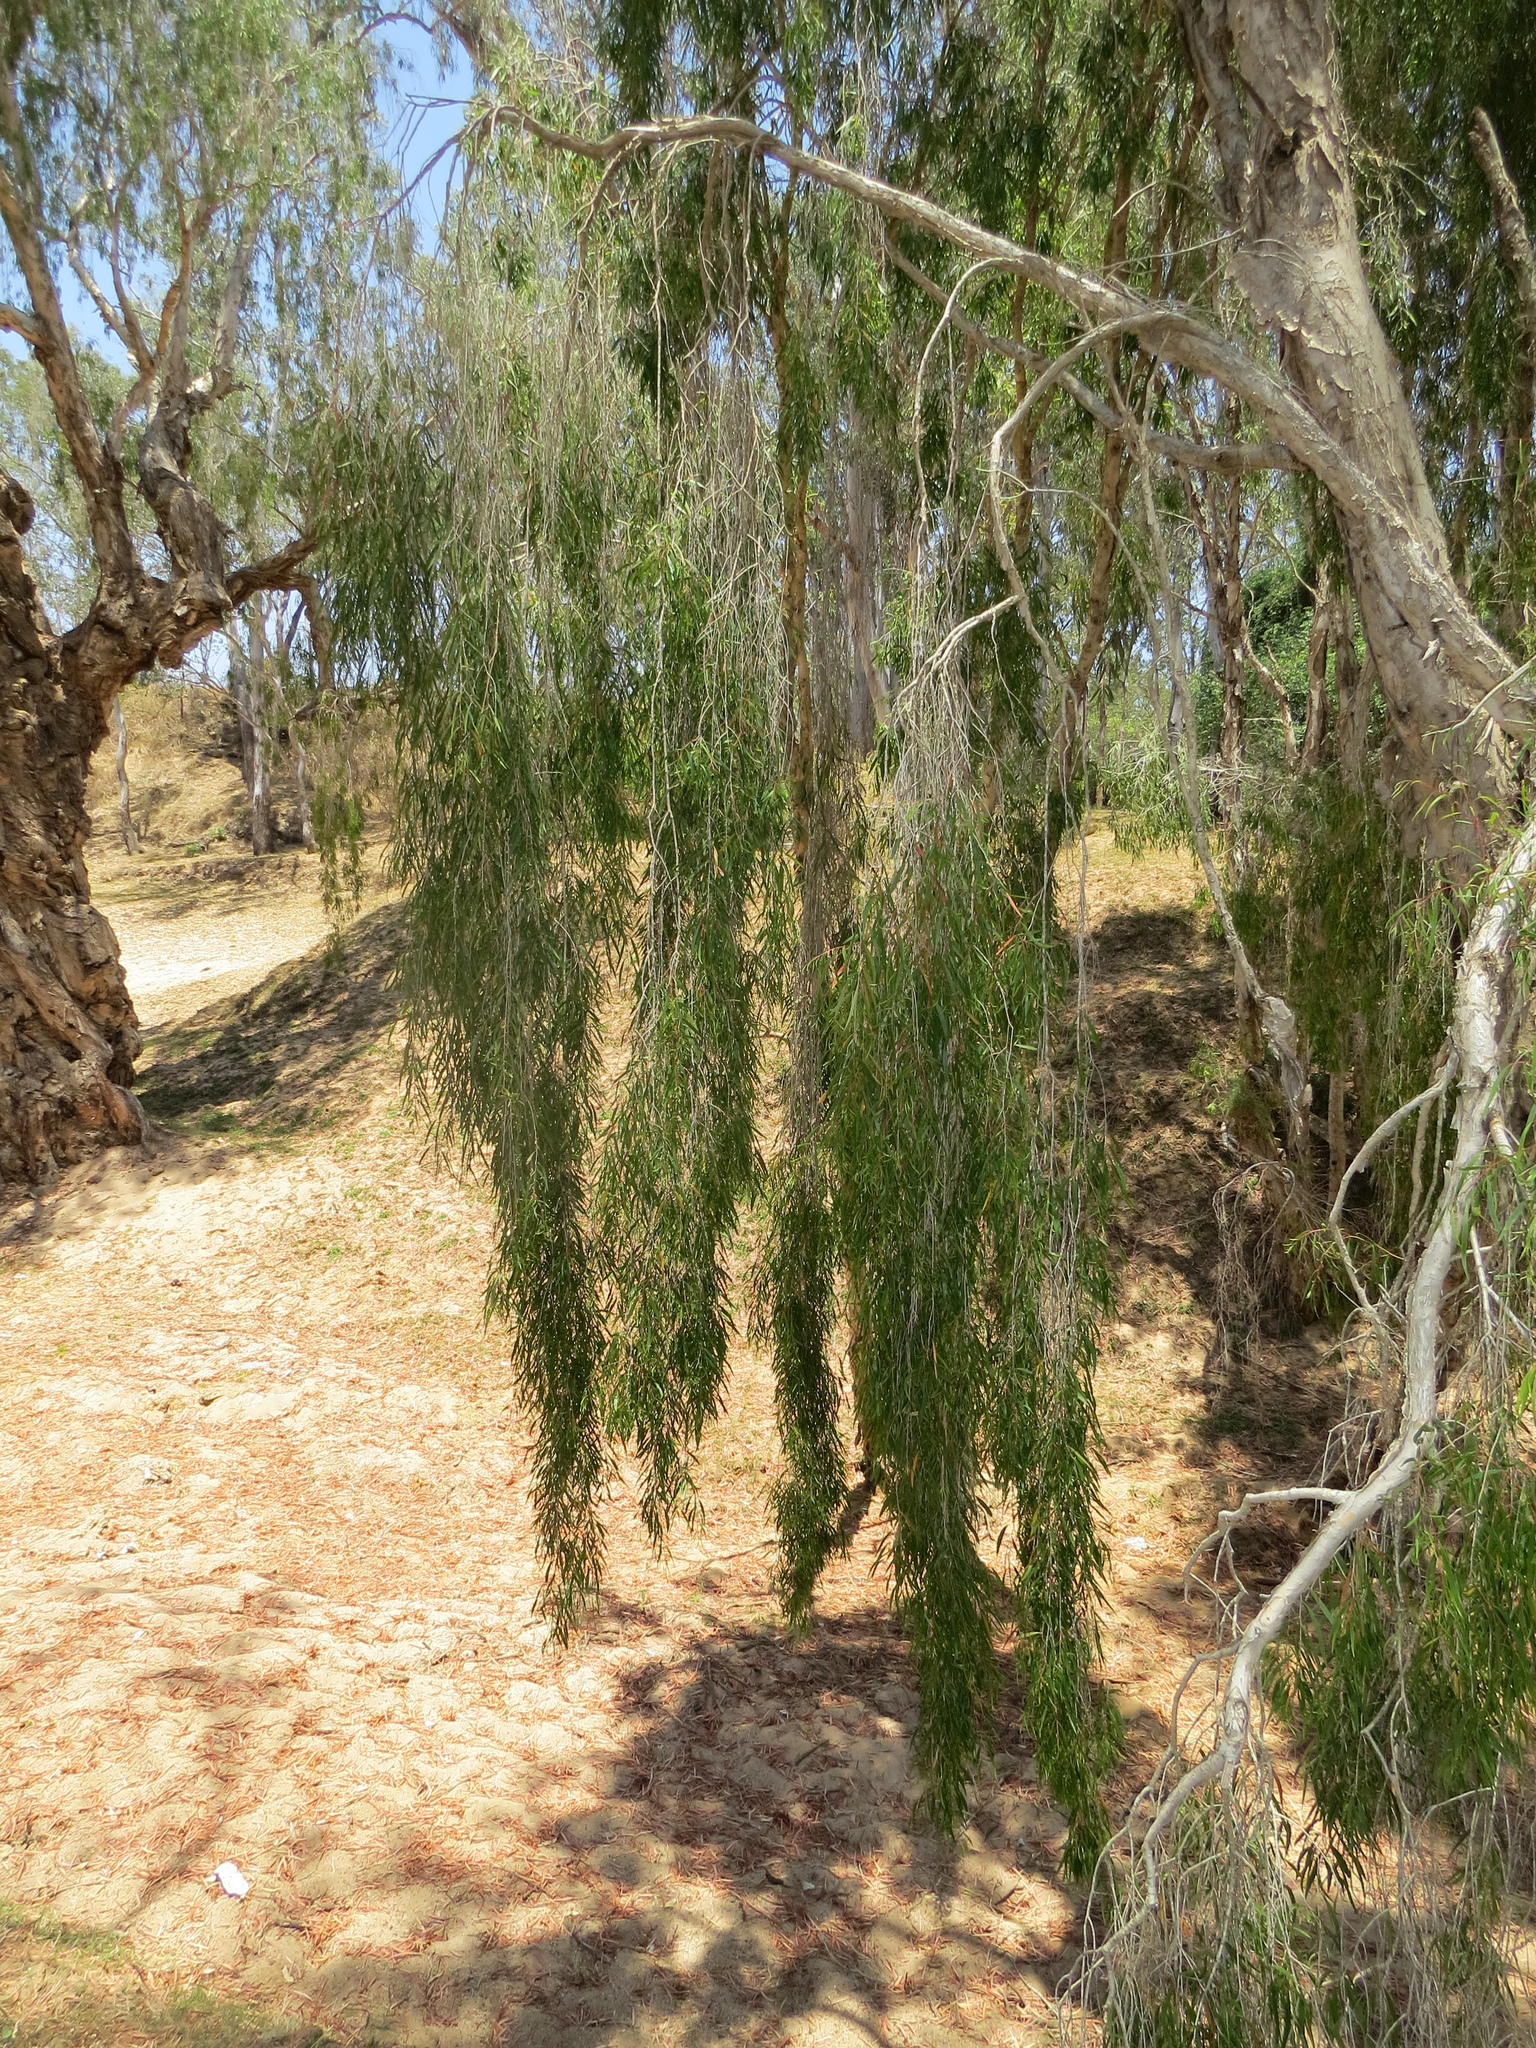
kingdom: Plantae
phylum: Tracheophyta
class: Magnoliopsida
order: Myrtales
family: Myrtaceae
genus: Melaleuca
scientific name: Melaleuca argentea
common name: Silver cadjeput
